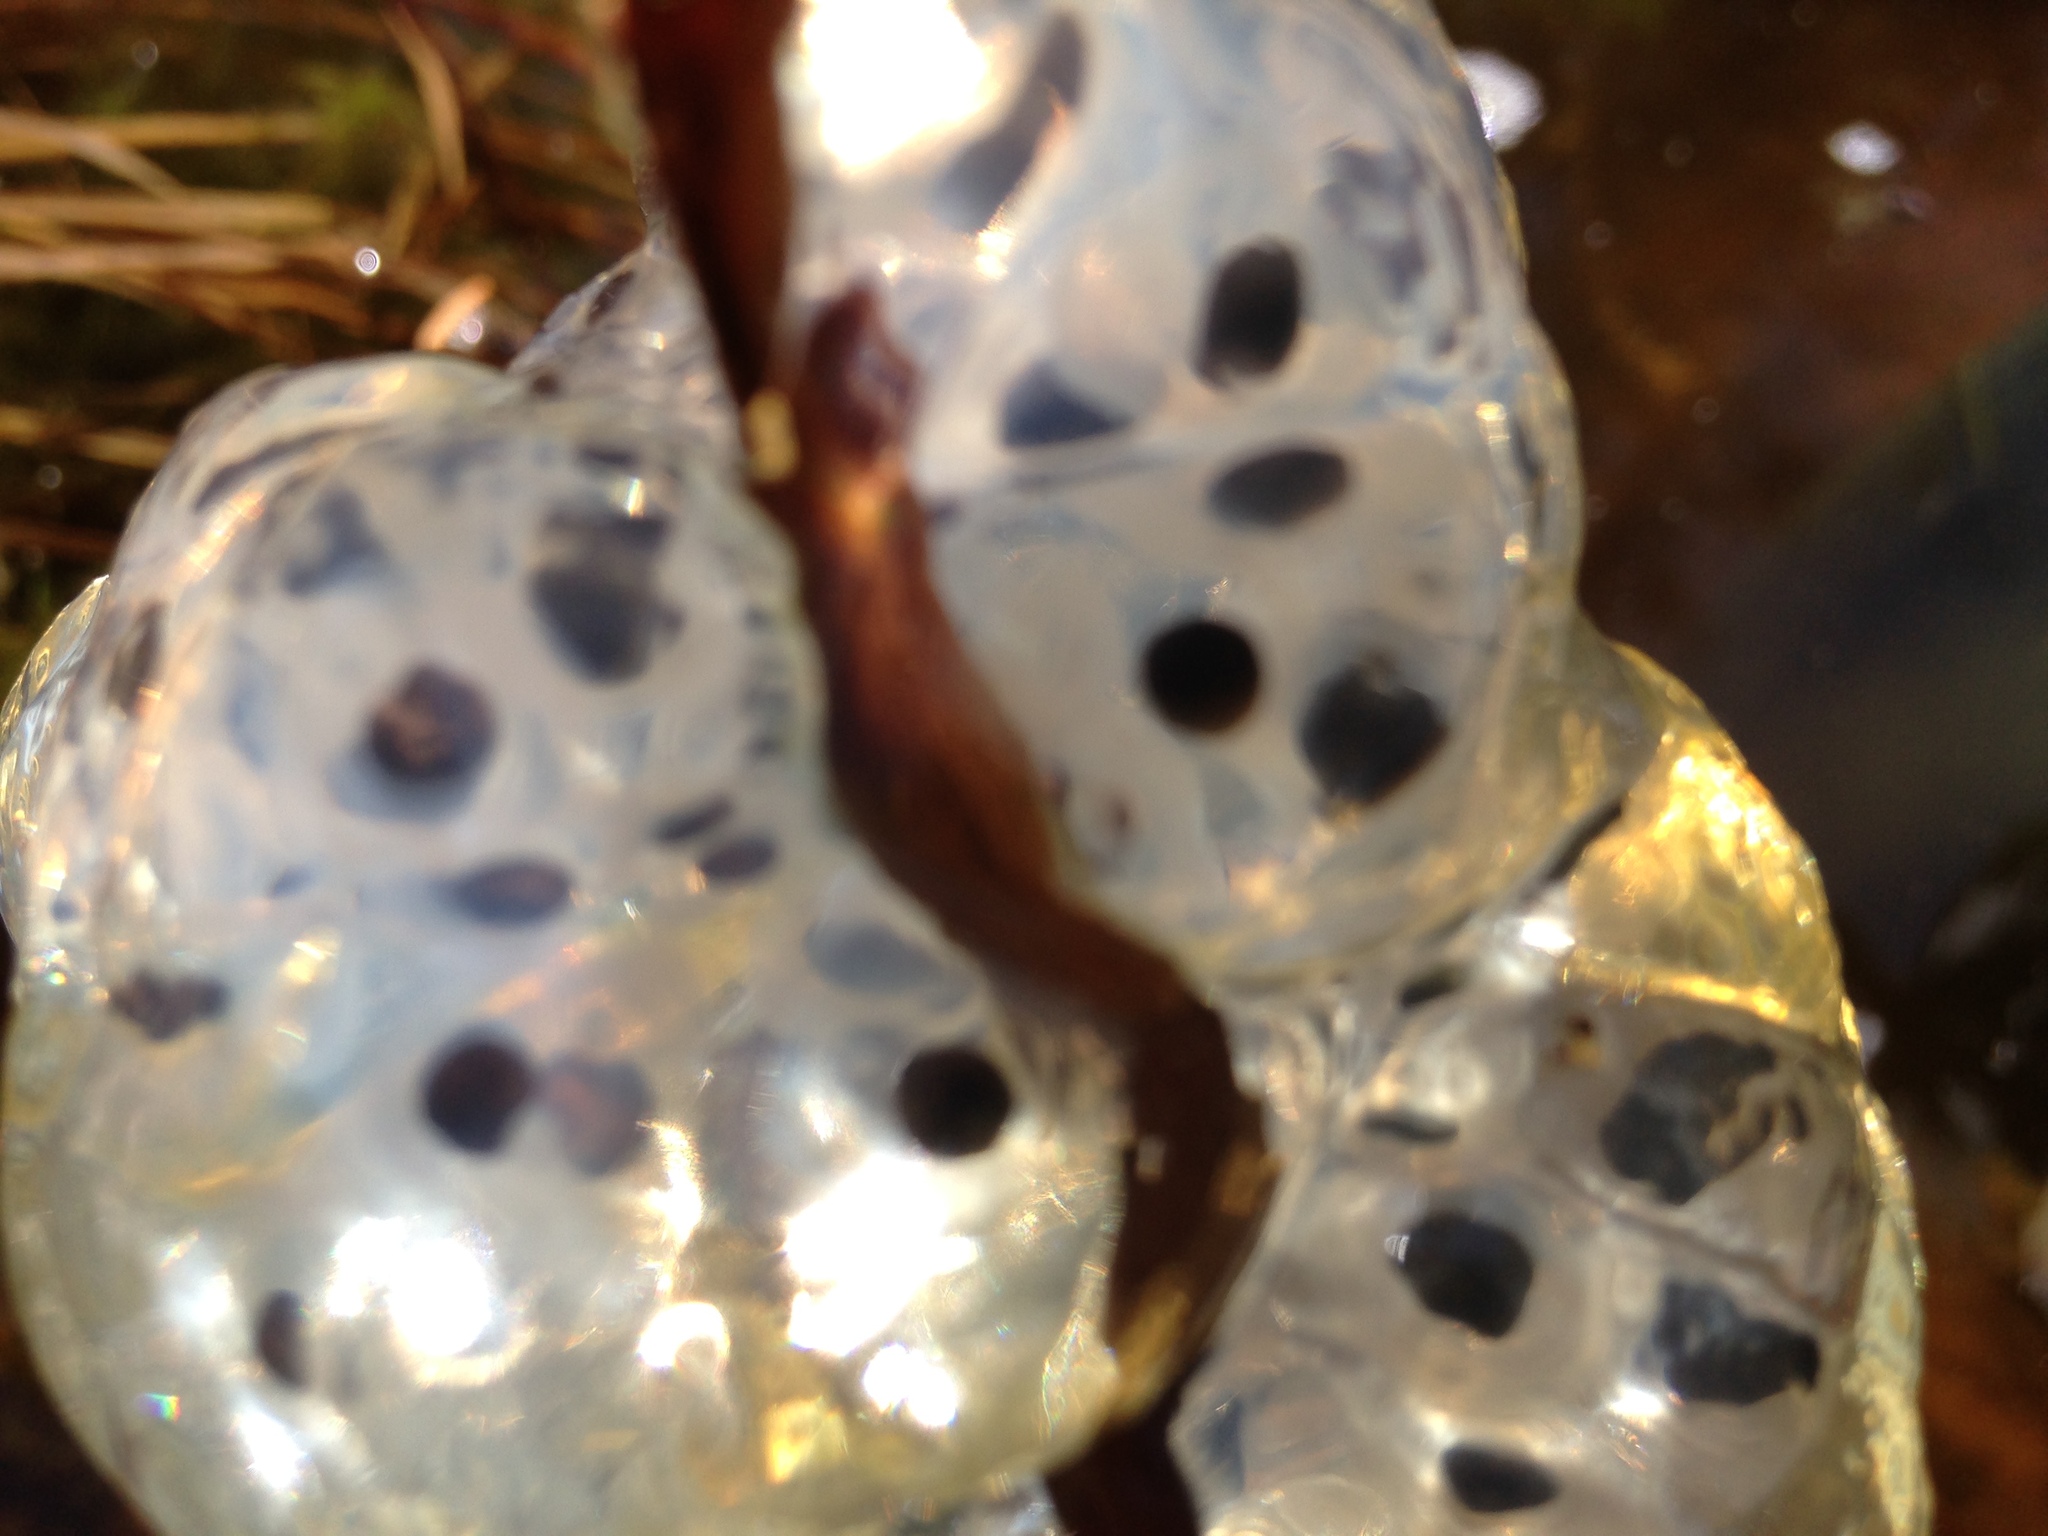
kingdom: Animalia
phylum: Chordata
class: Amphibia
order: Caudata
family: Ambystomatidae
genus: Ambystoma
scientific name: Ambystoma maculatum
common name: Spotted salamander
